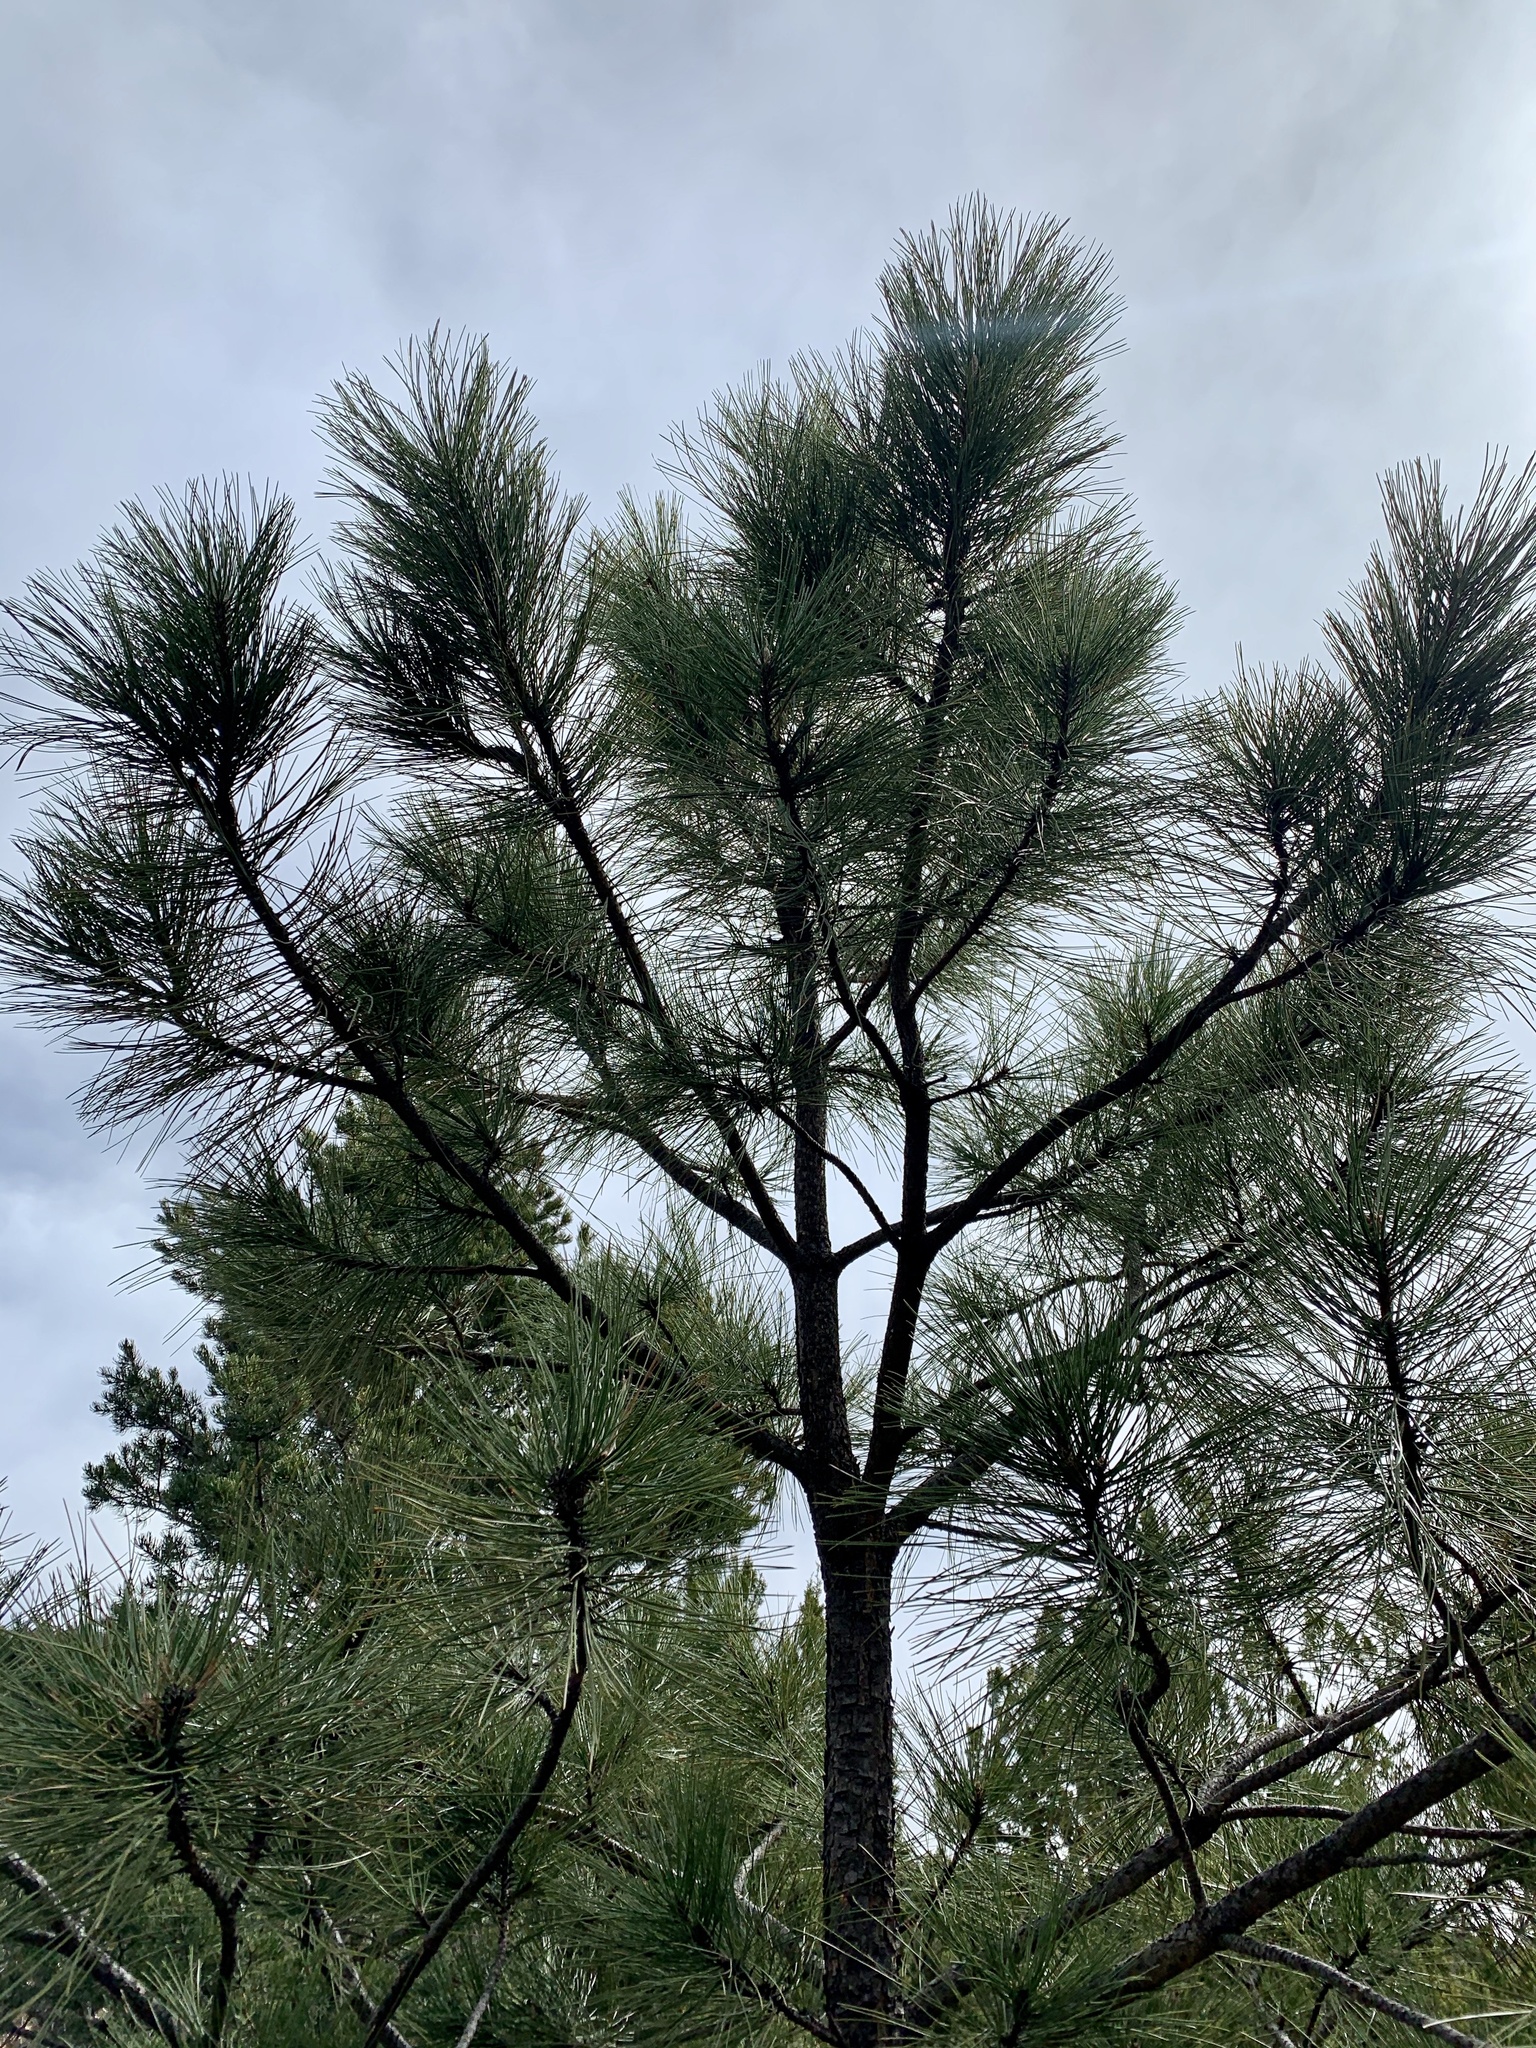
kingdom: Plantae
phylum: Tracheophyta
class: Pinopsida
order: Pinales
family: Pinaceae
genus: Pinus
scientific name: Pinus ponderosa
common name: Western yellow-pine
